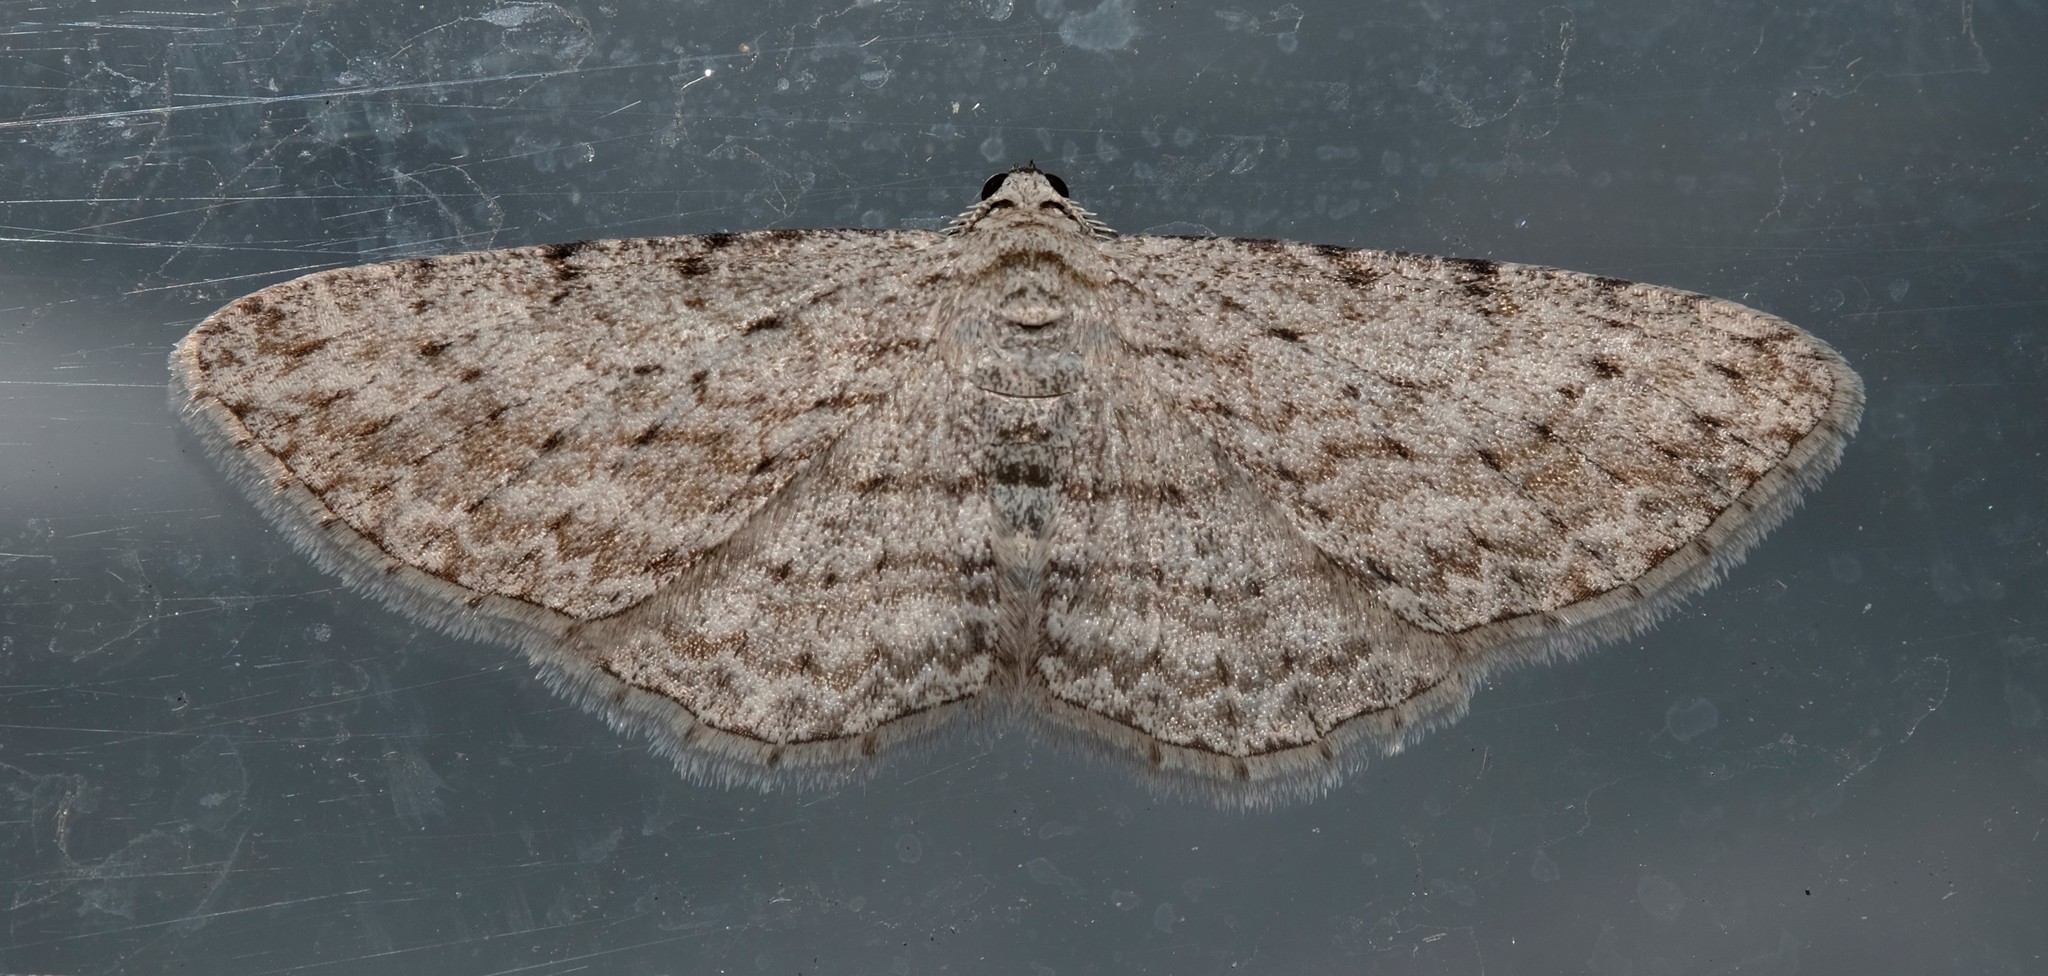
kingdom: Animalia
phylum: Arthropoda
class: Insecta
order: Lepidoptera
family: Geometridae
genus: Phelotis
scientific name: Phelotis cognata
